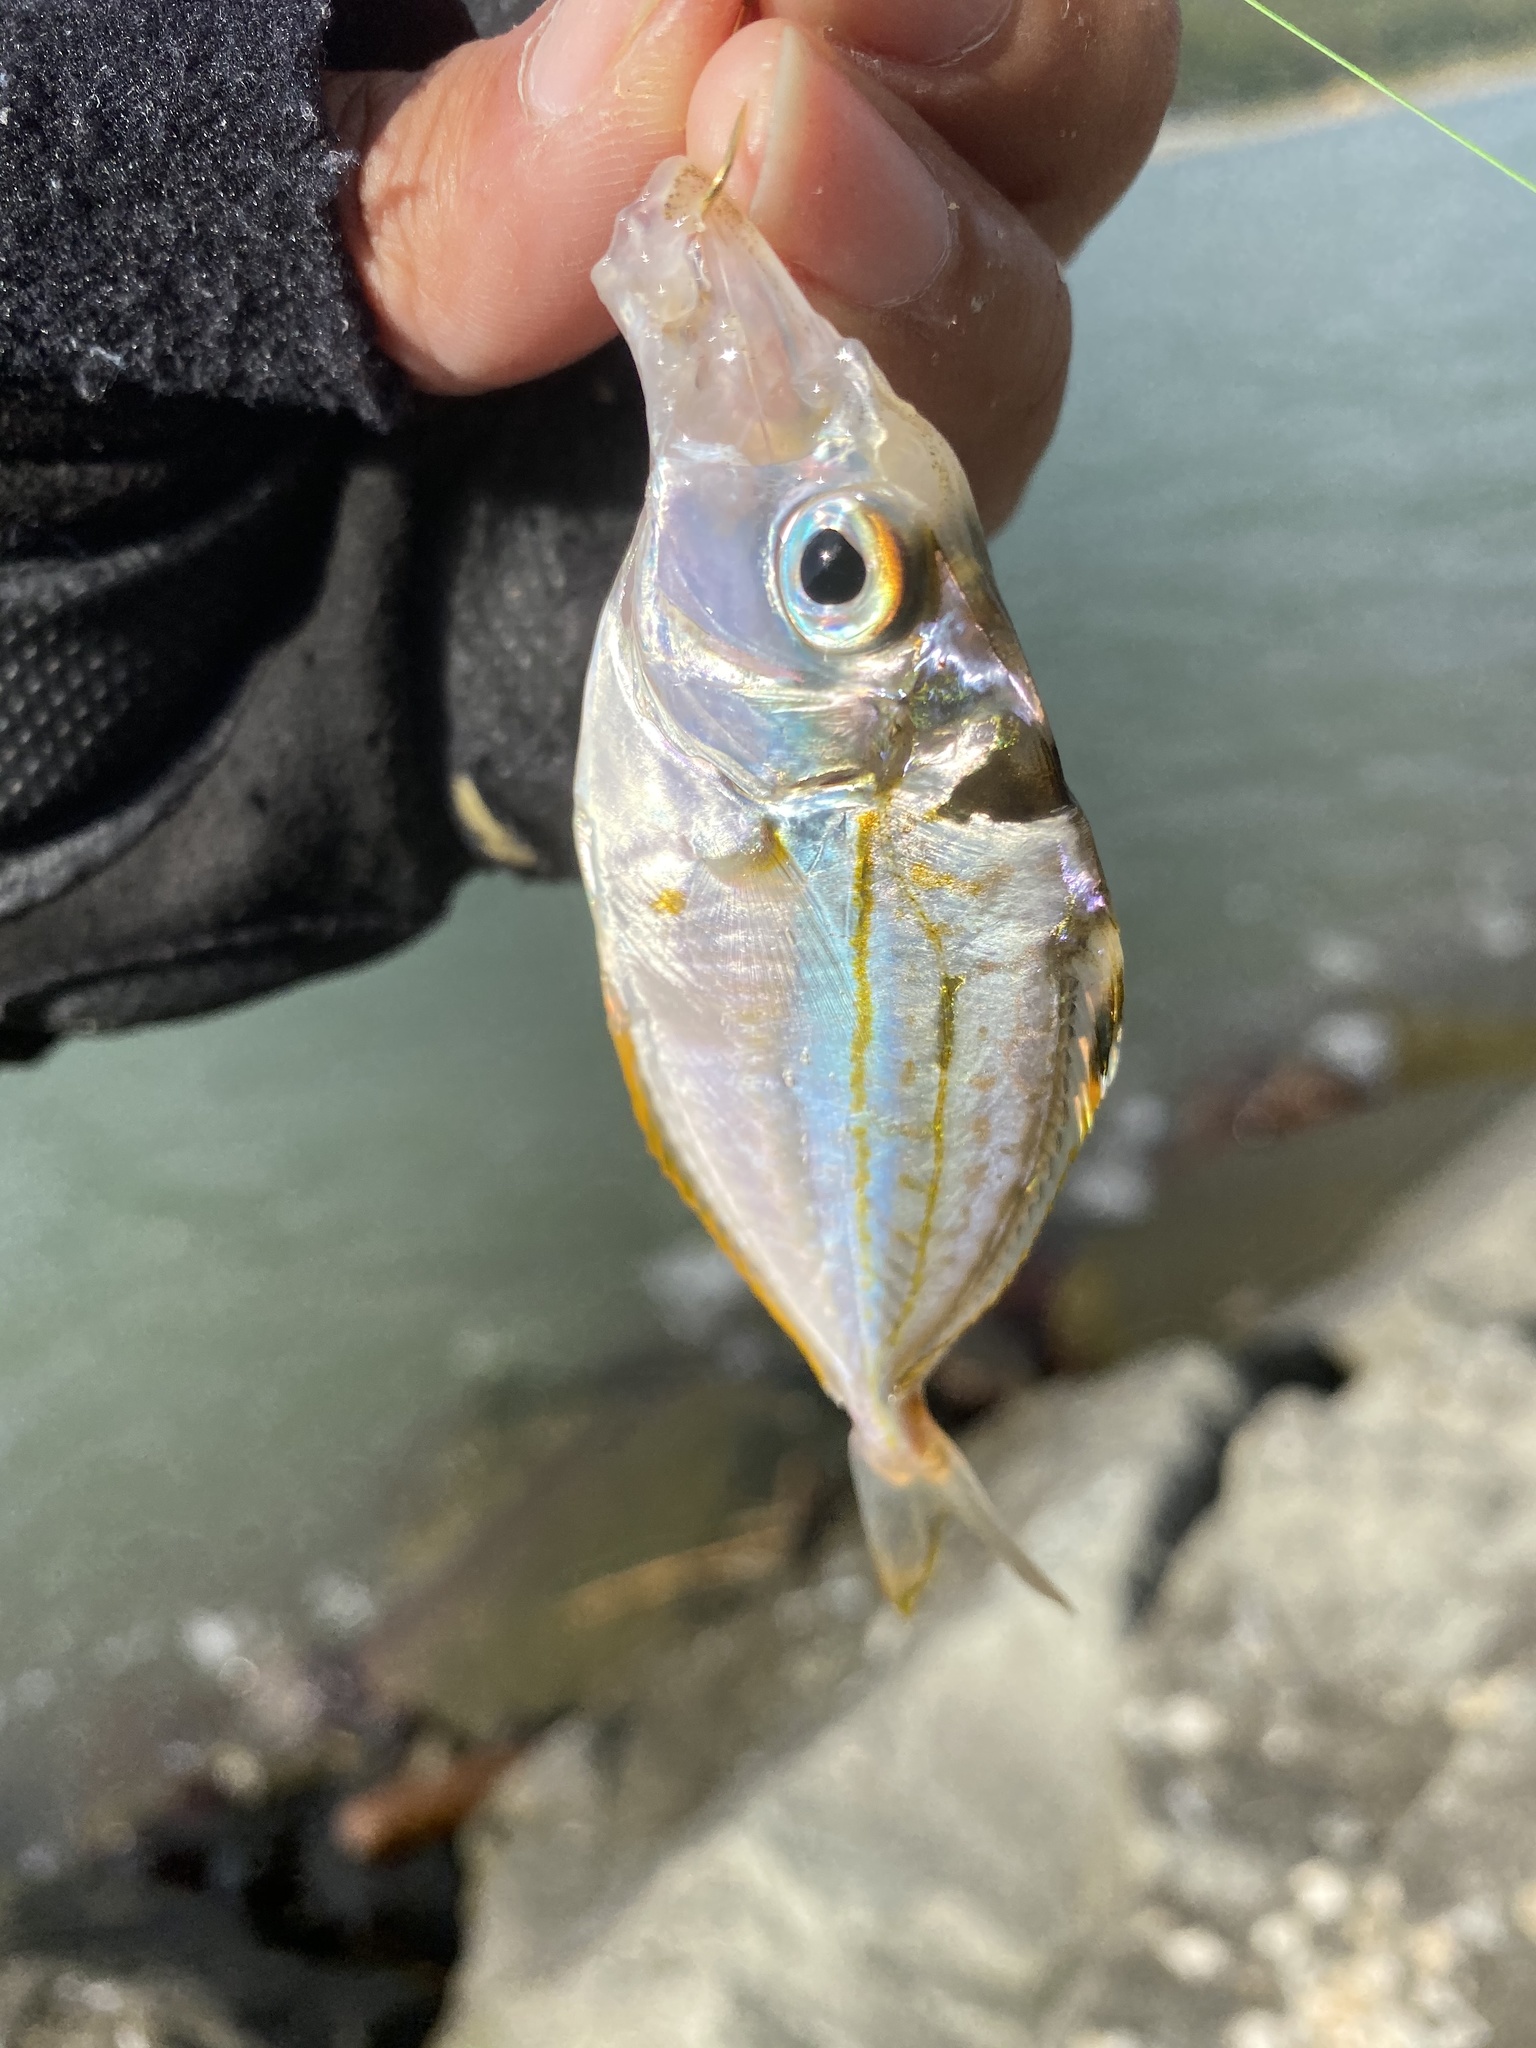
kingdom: Animalia
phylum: Chordata
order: Perciformes
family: Leiognathidae
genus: Nuchequula
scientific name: Nuchequula nuchalis
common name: Spotnape ponyfish
